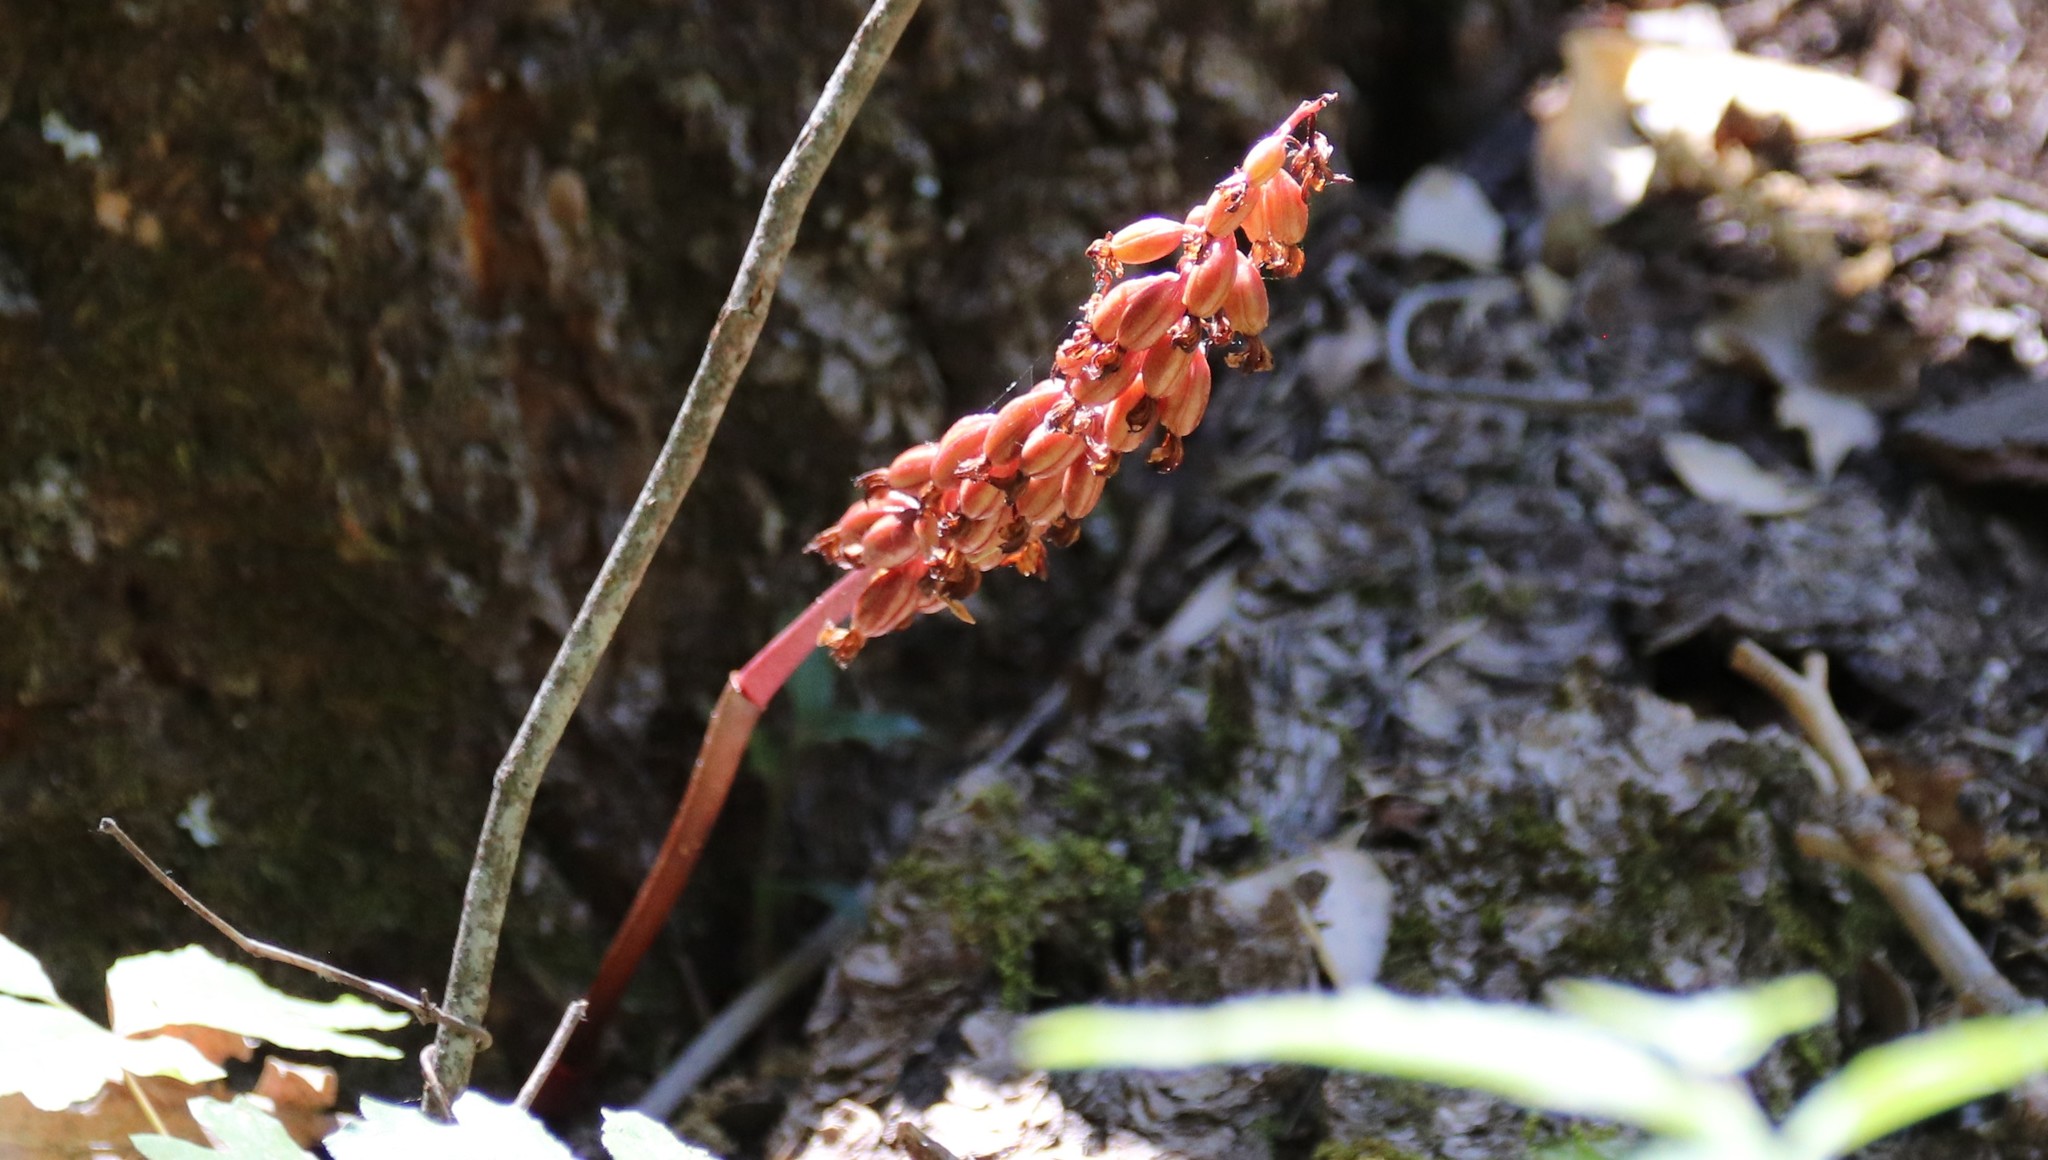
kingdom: Plantae
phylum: Tracheophyta
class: Liliopsida
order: Asparagales
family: Orchidaceae
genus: Corallorhiza
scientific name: Corallorhiza maculata
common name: Spotted coralroot
